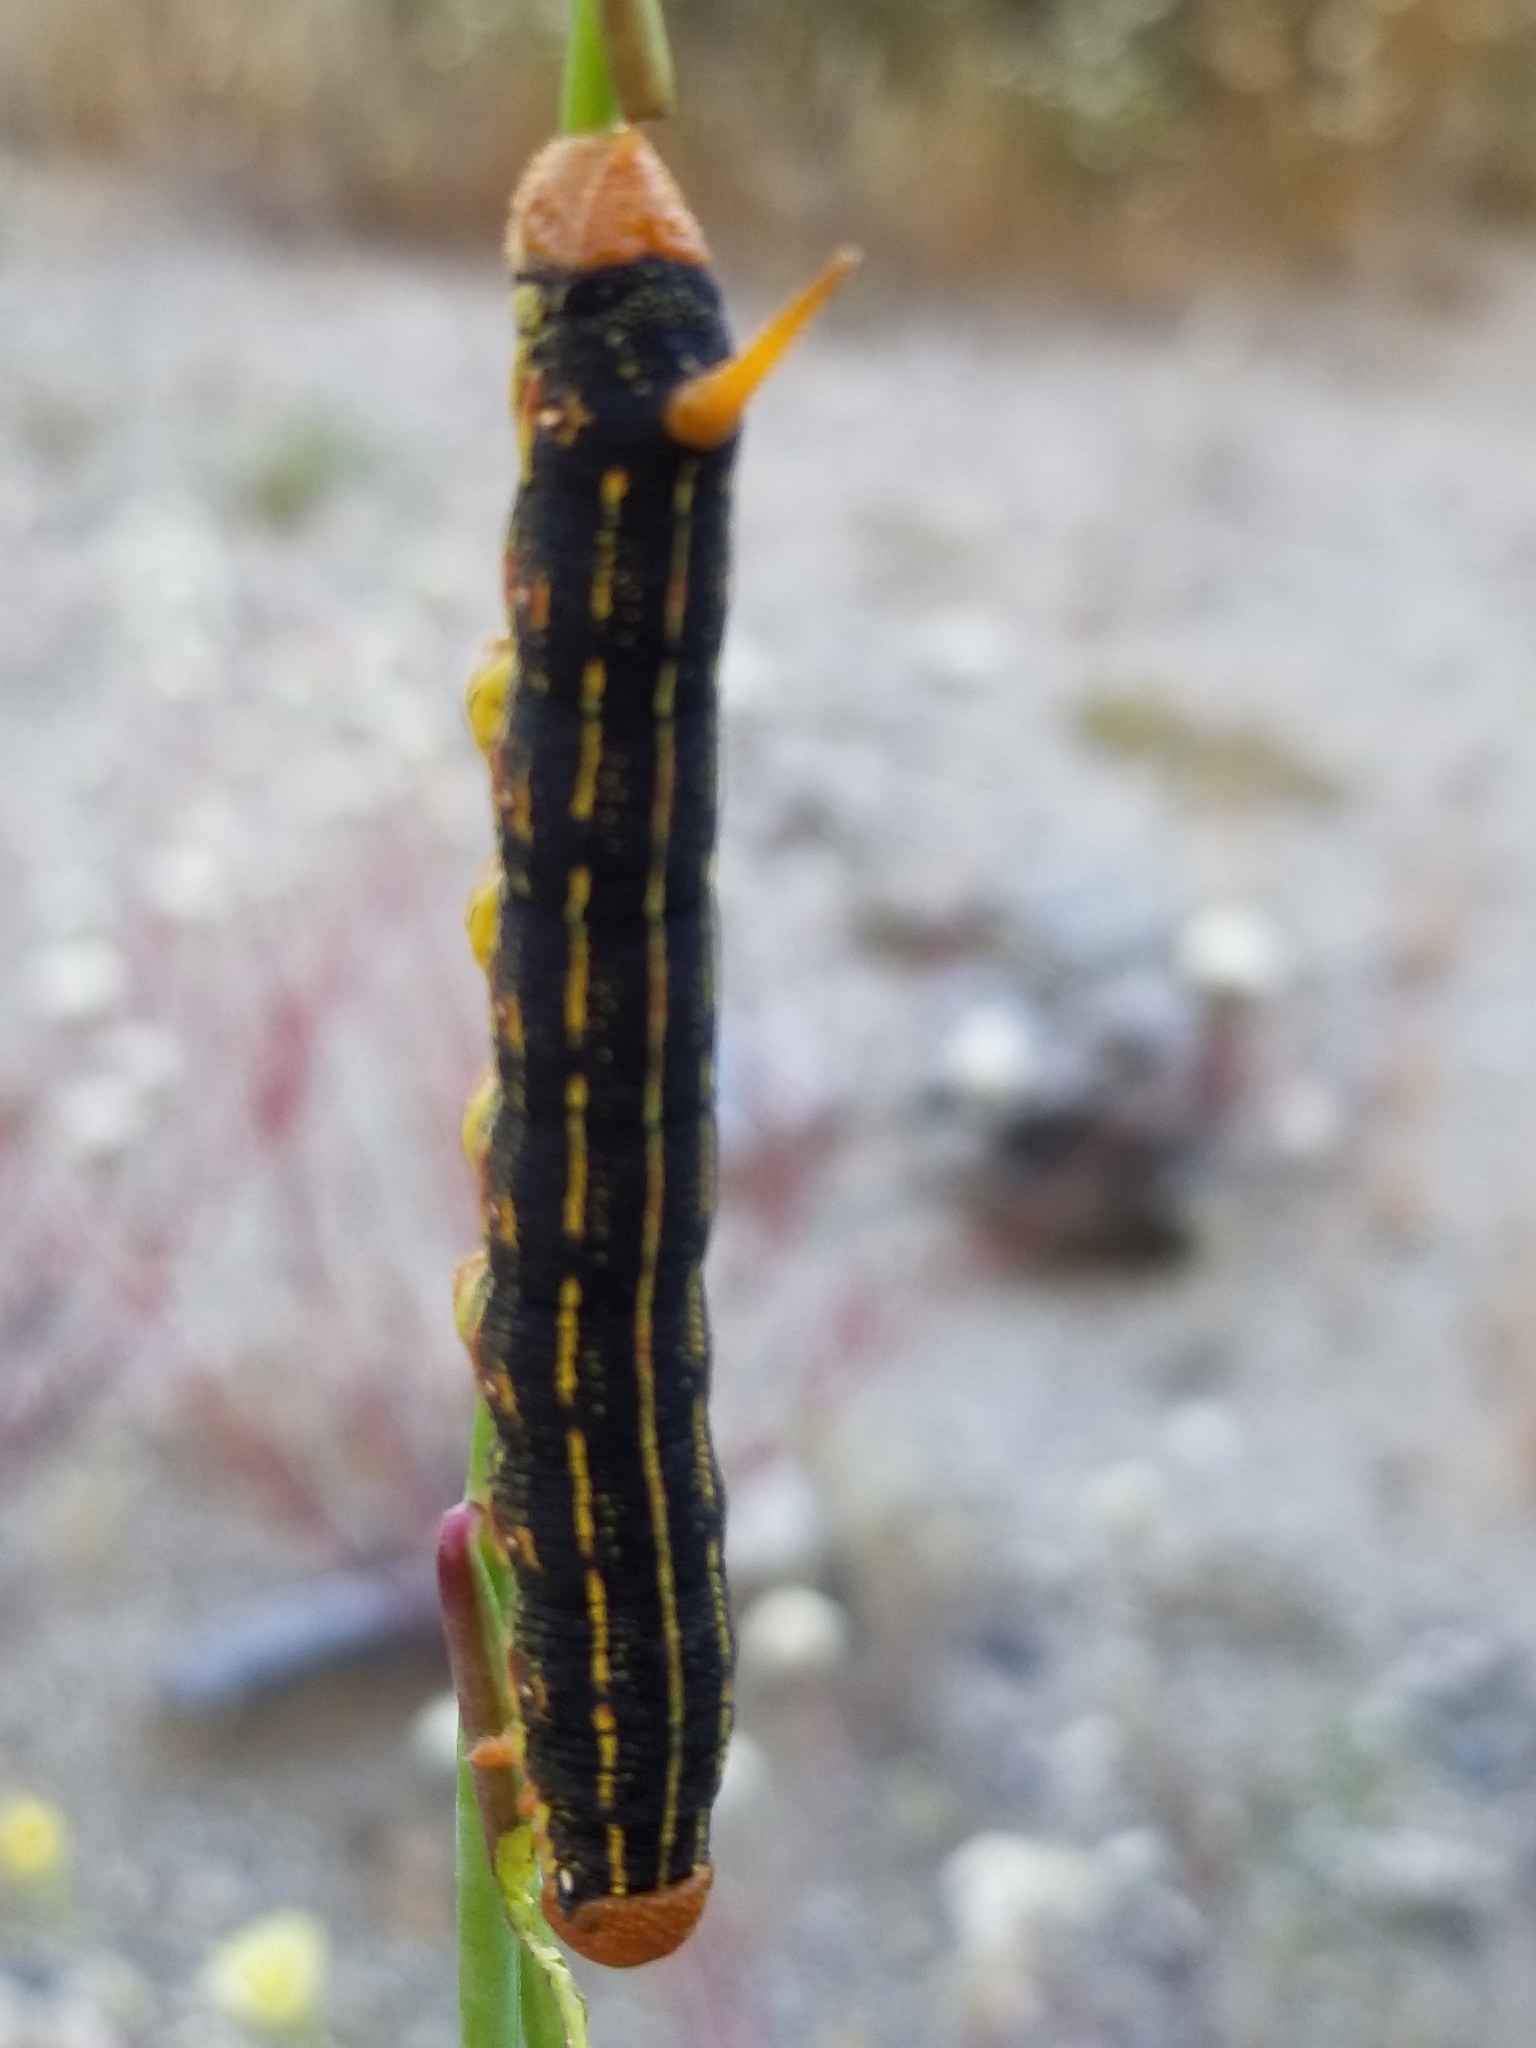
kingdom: Animalia
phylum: Arthropoda
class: Insecta
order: Lepidoptera
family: Sphingidae
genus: Hyles
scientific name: Hyles lineata
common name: White-lined sphinx
